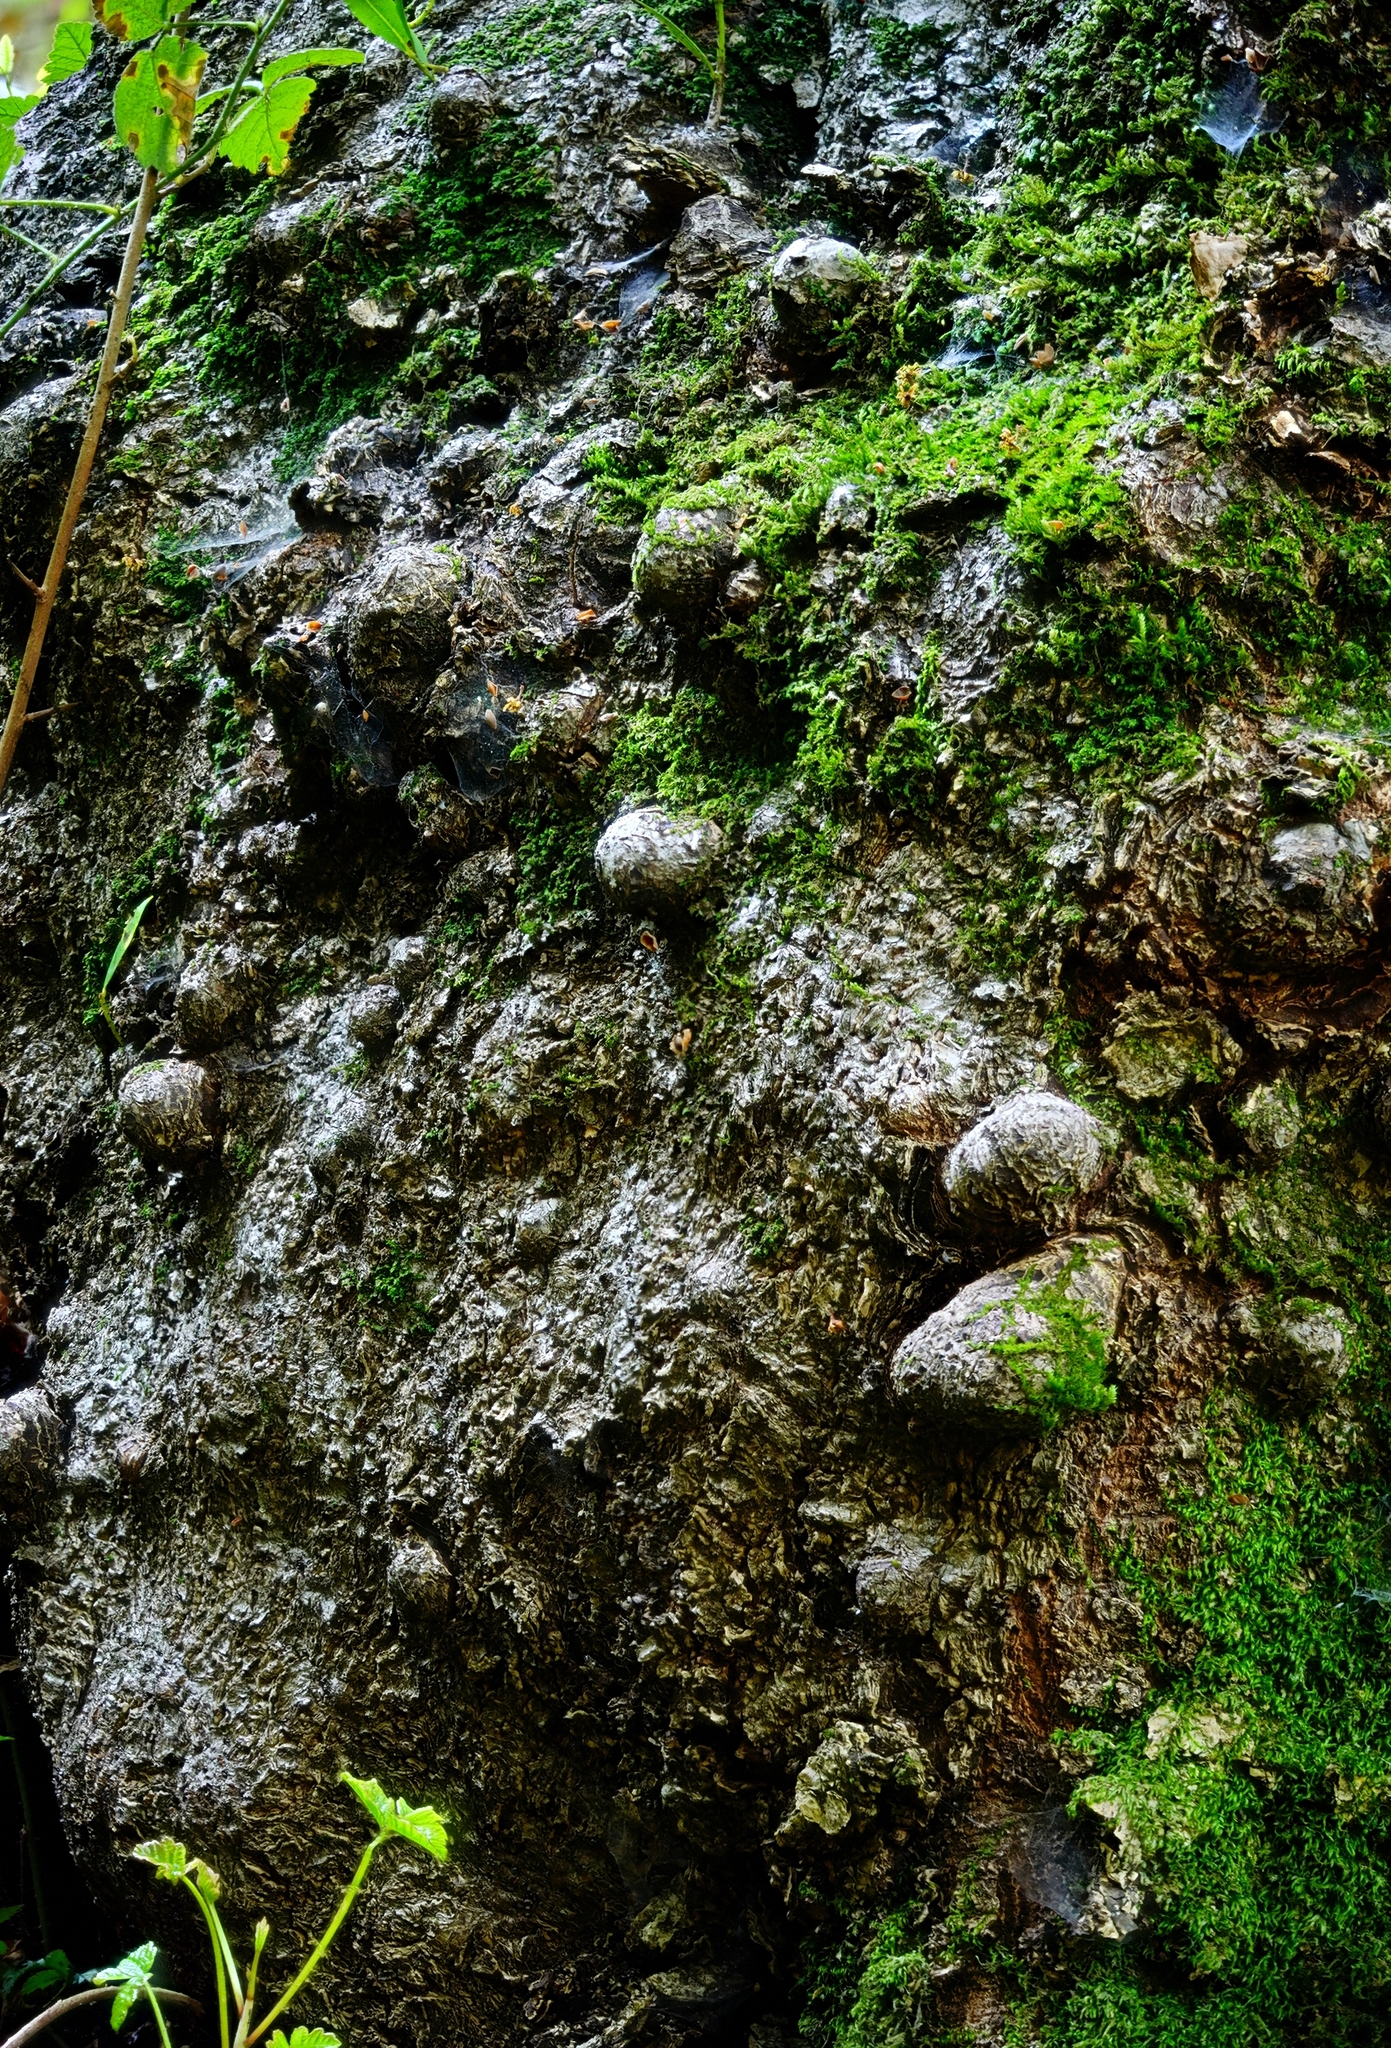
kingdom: Plantae
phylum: Tracheophyta
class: Magnoliopsida
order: Laurales
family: Lauraceae
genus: Umbellularia
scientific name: Umbellularia californica
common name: California bay
